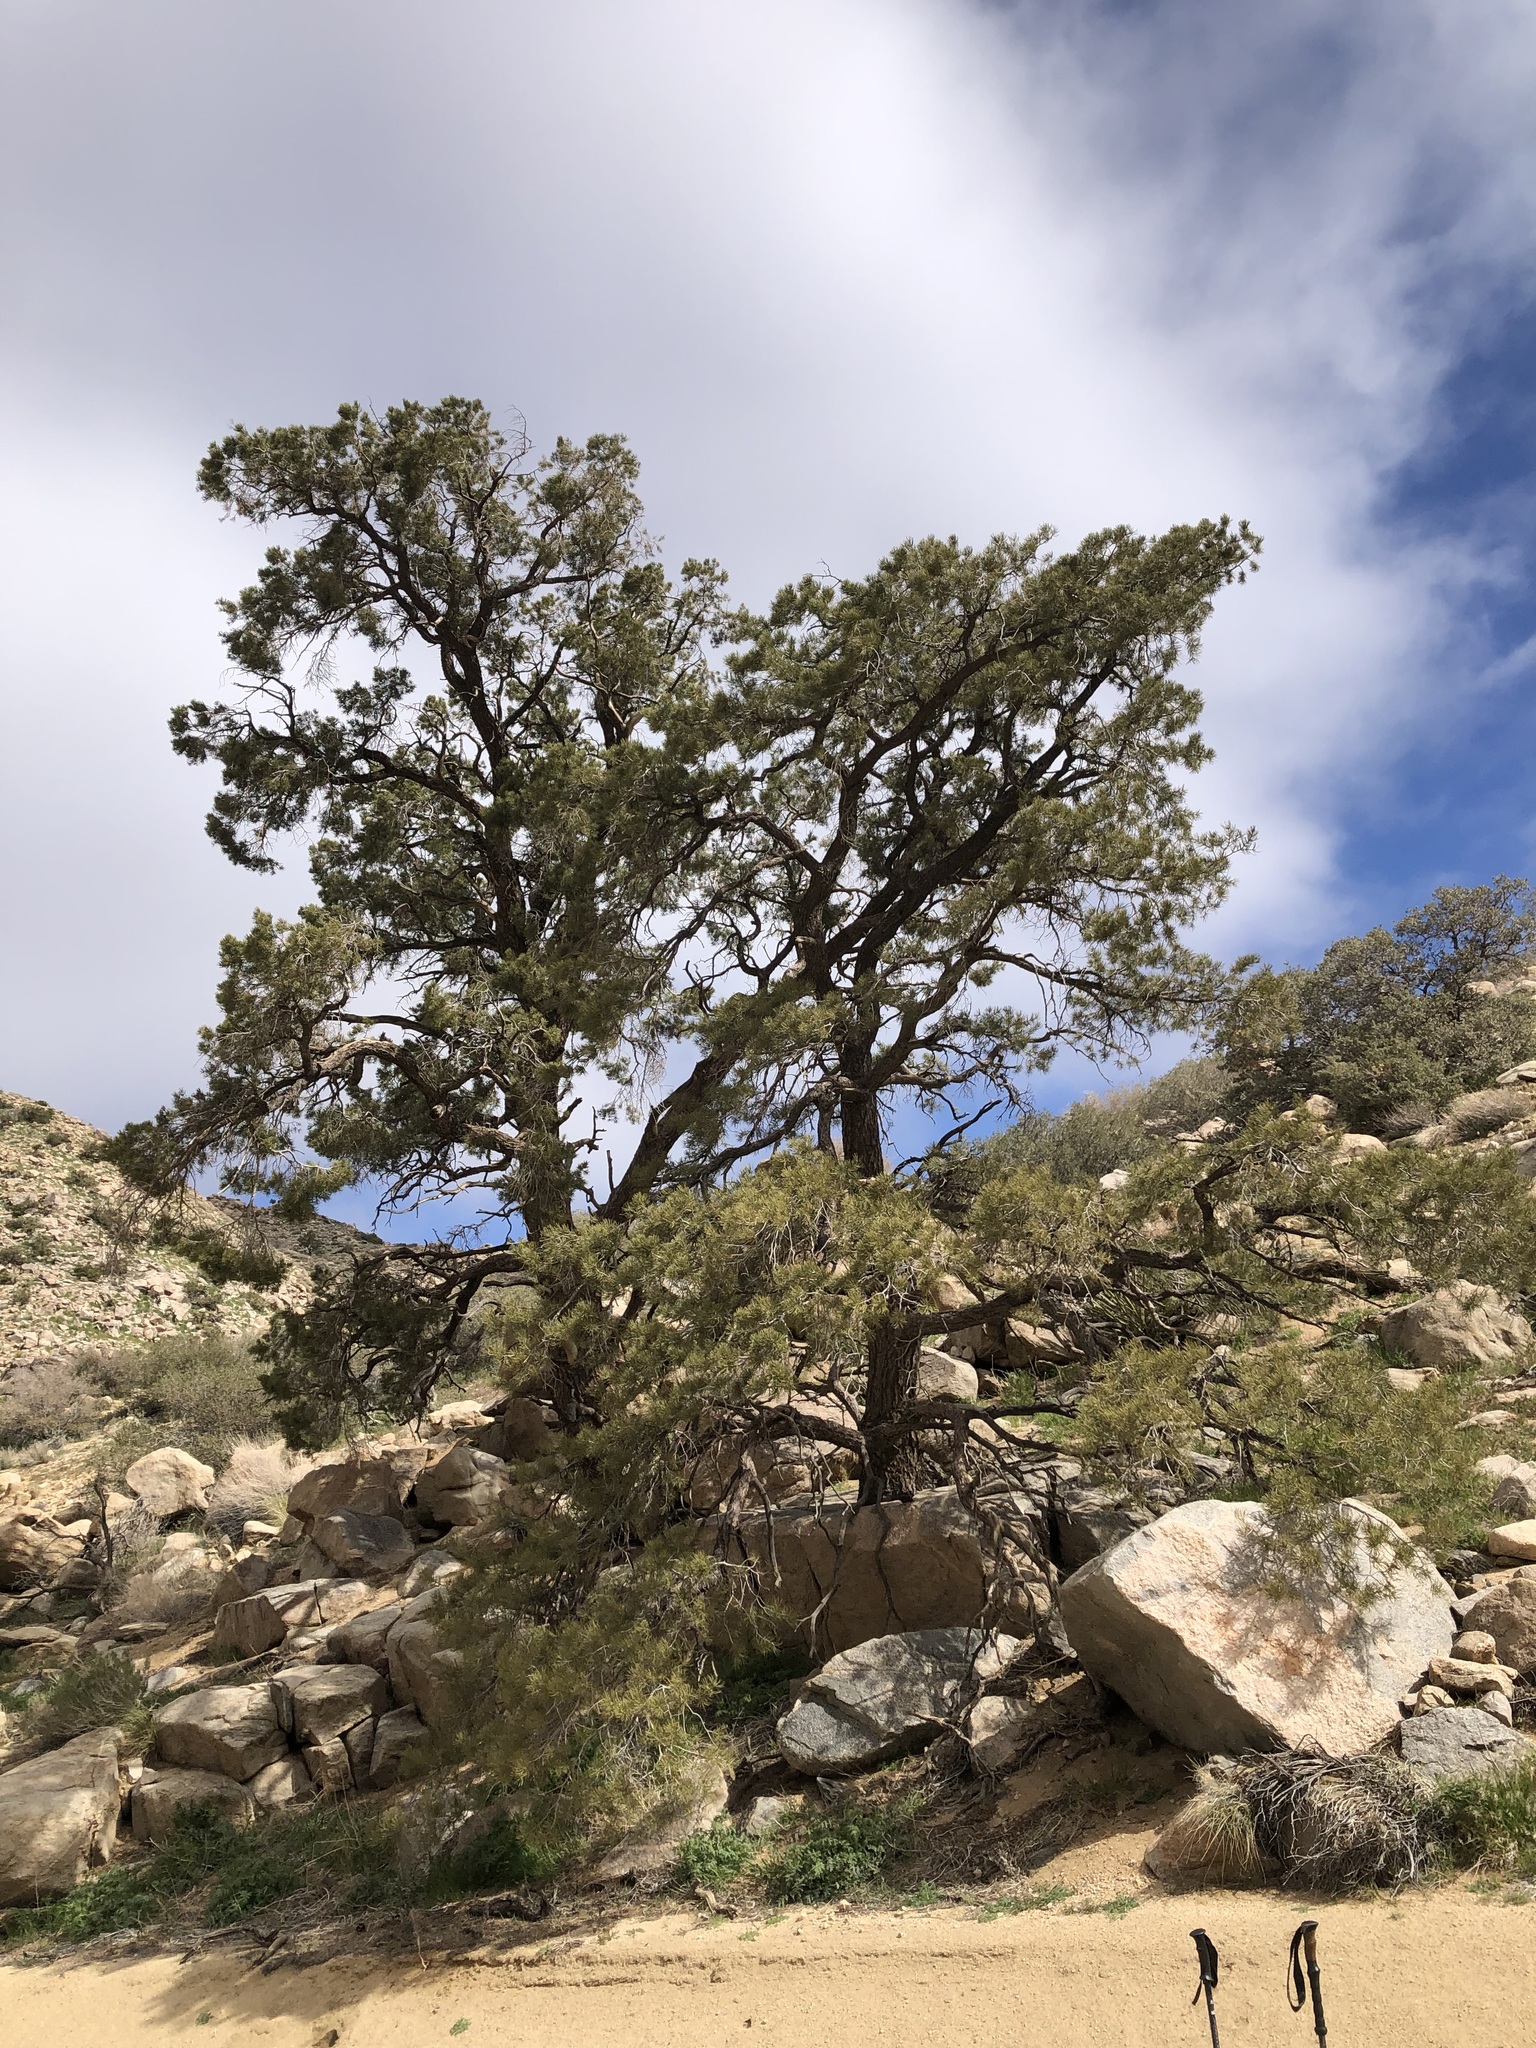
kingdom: Plantae
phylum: Tracheophyta
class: Pinopsida
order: Pinales
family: Pinaceae
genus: Pinus
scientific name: Pinus monophylla
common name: One-leaved nut pine
